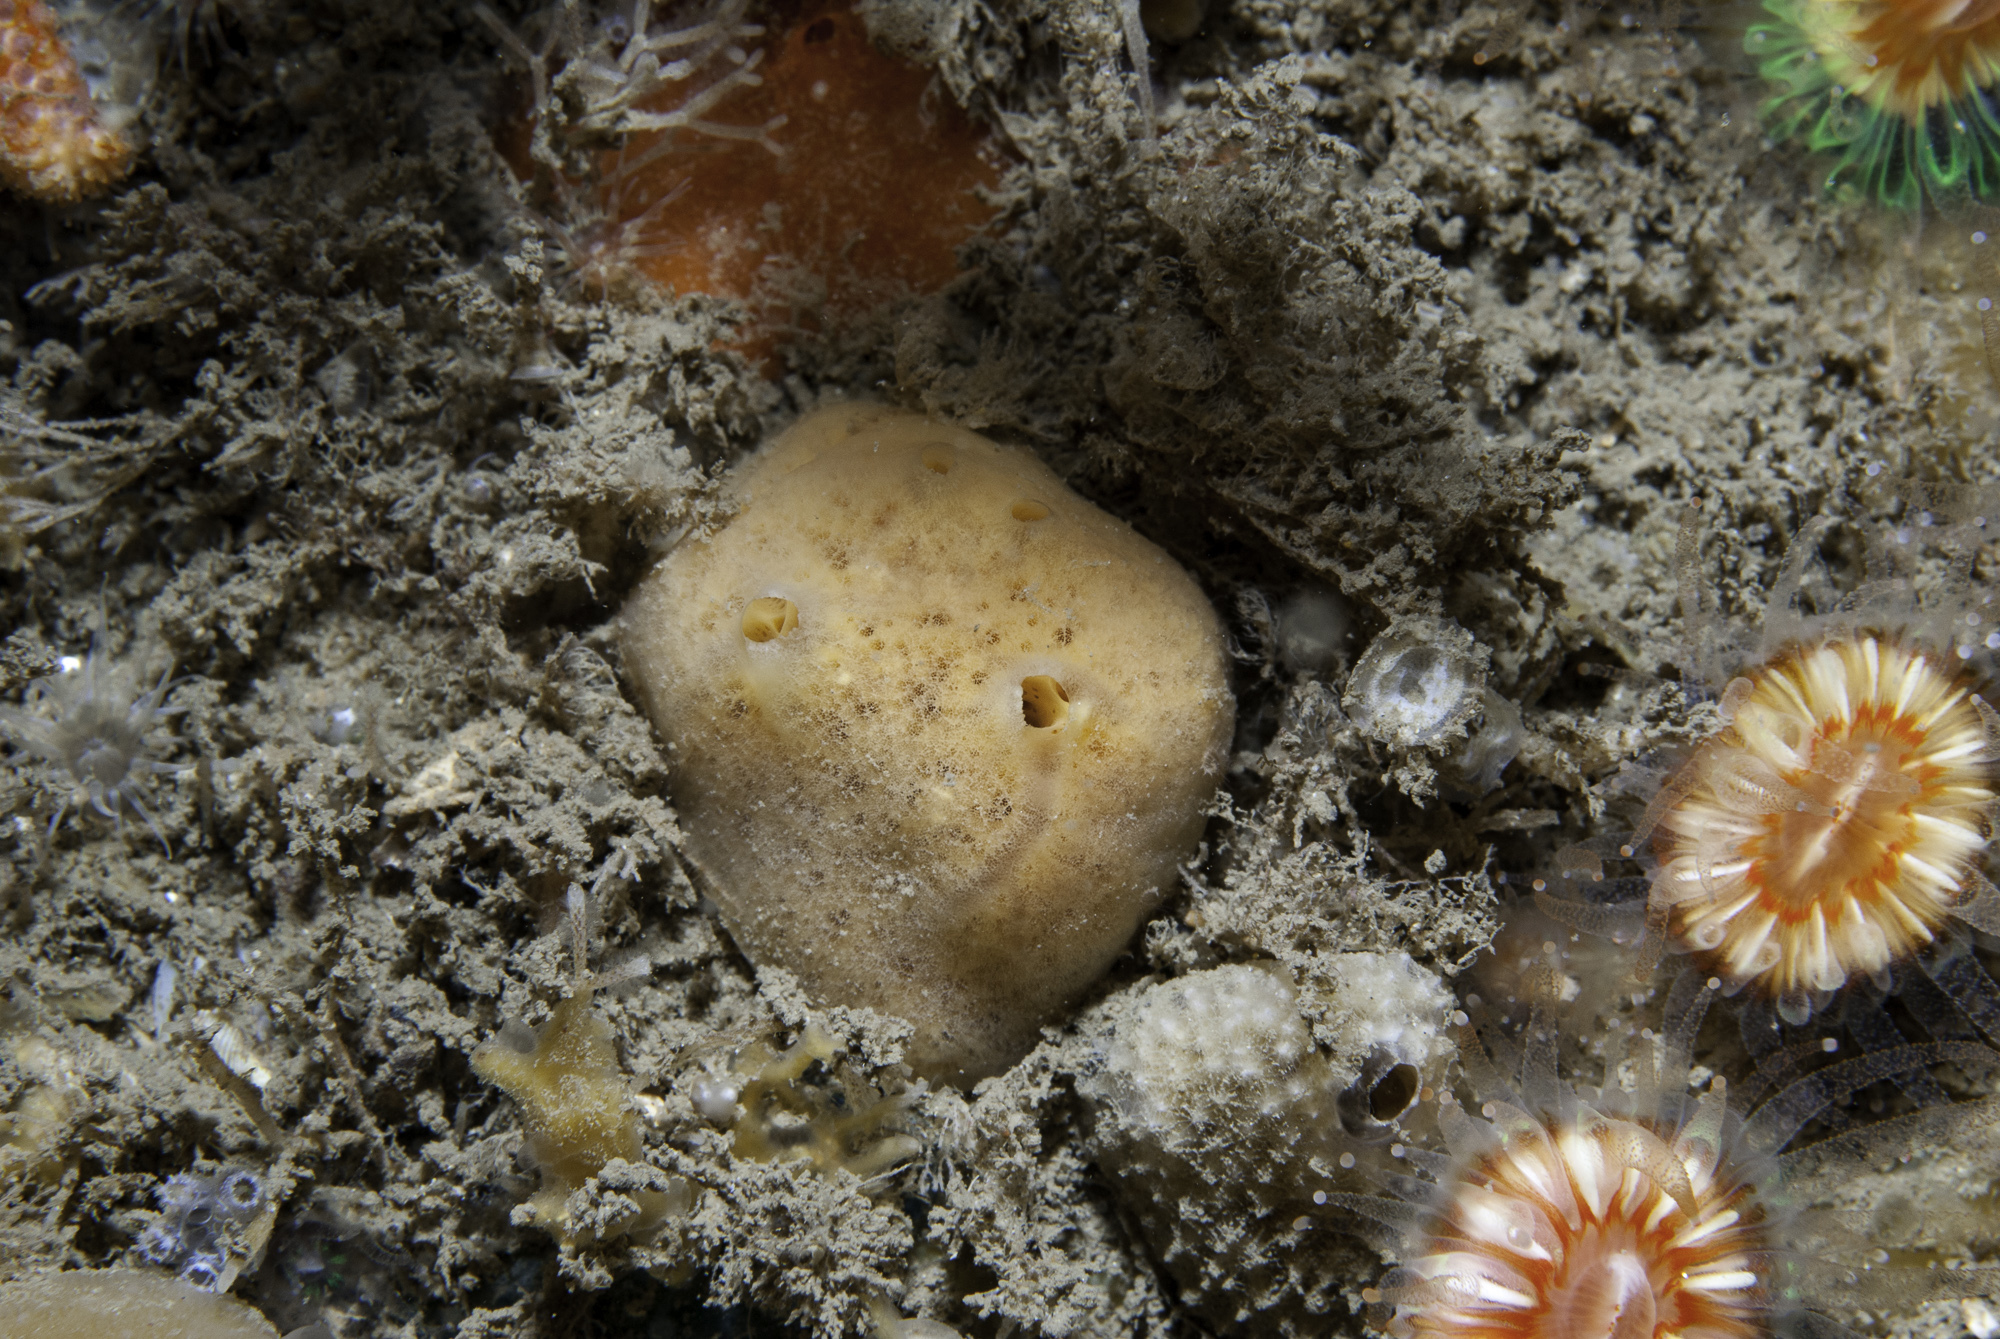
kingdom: Animalia
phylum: Porifera
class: Demospongiae
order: Poecilosclerida
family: Myxillidae
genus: Myxilla
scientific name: Myxilla fimbriata
